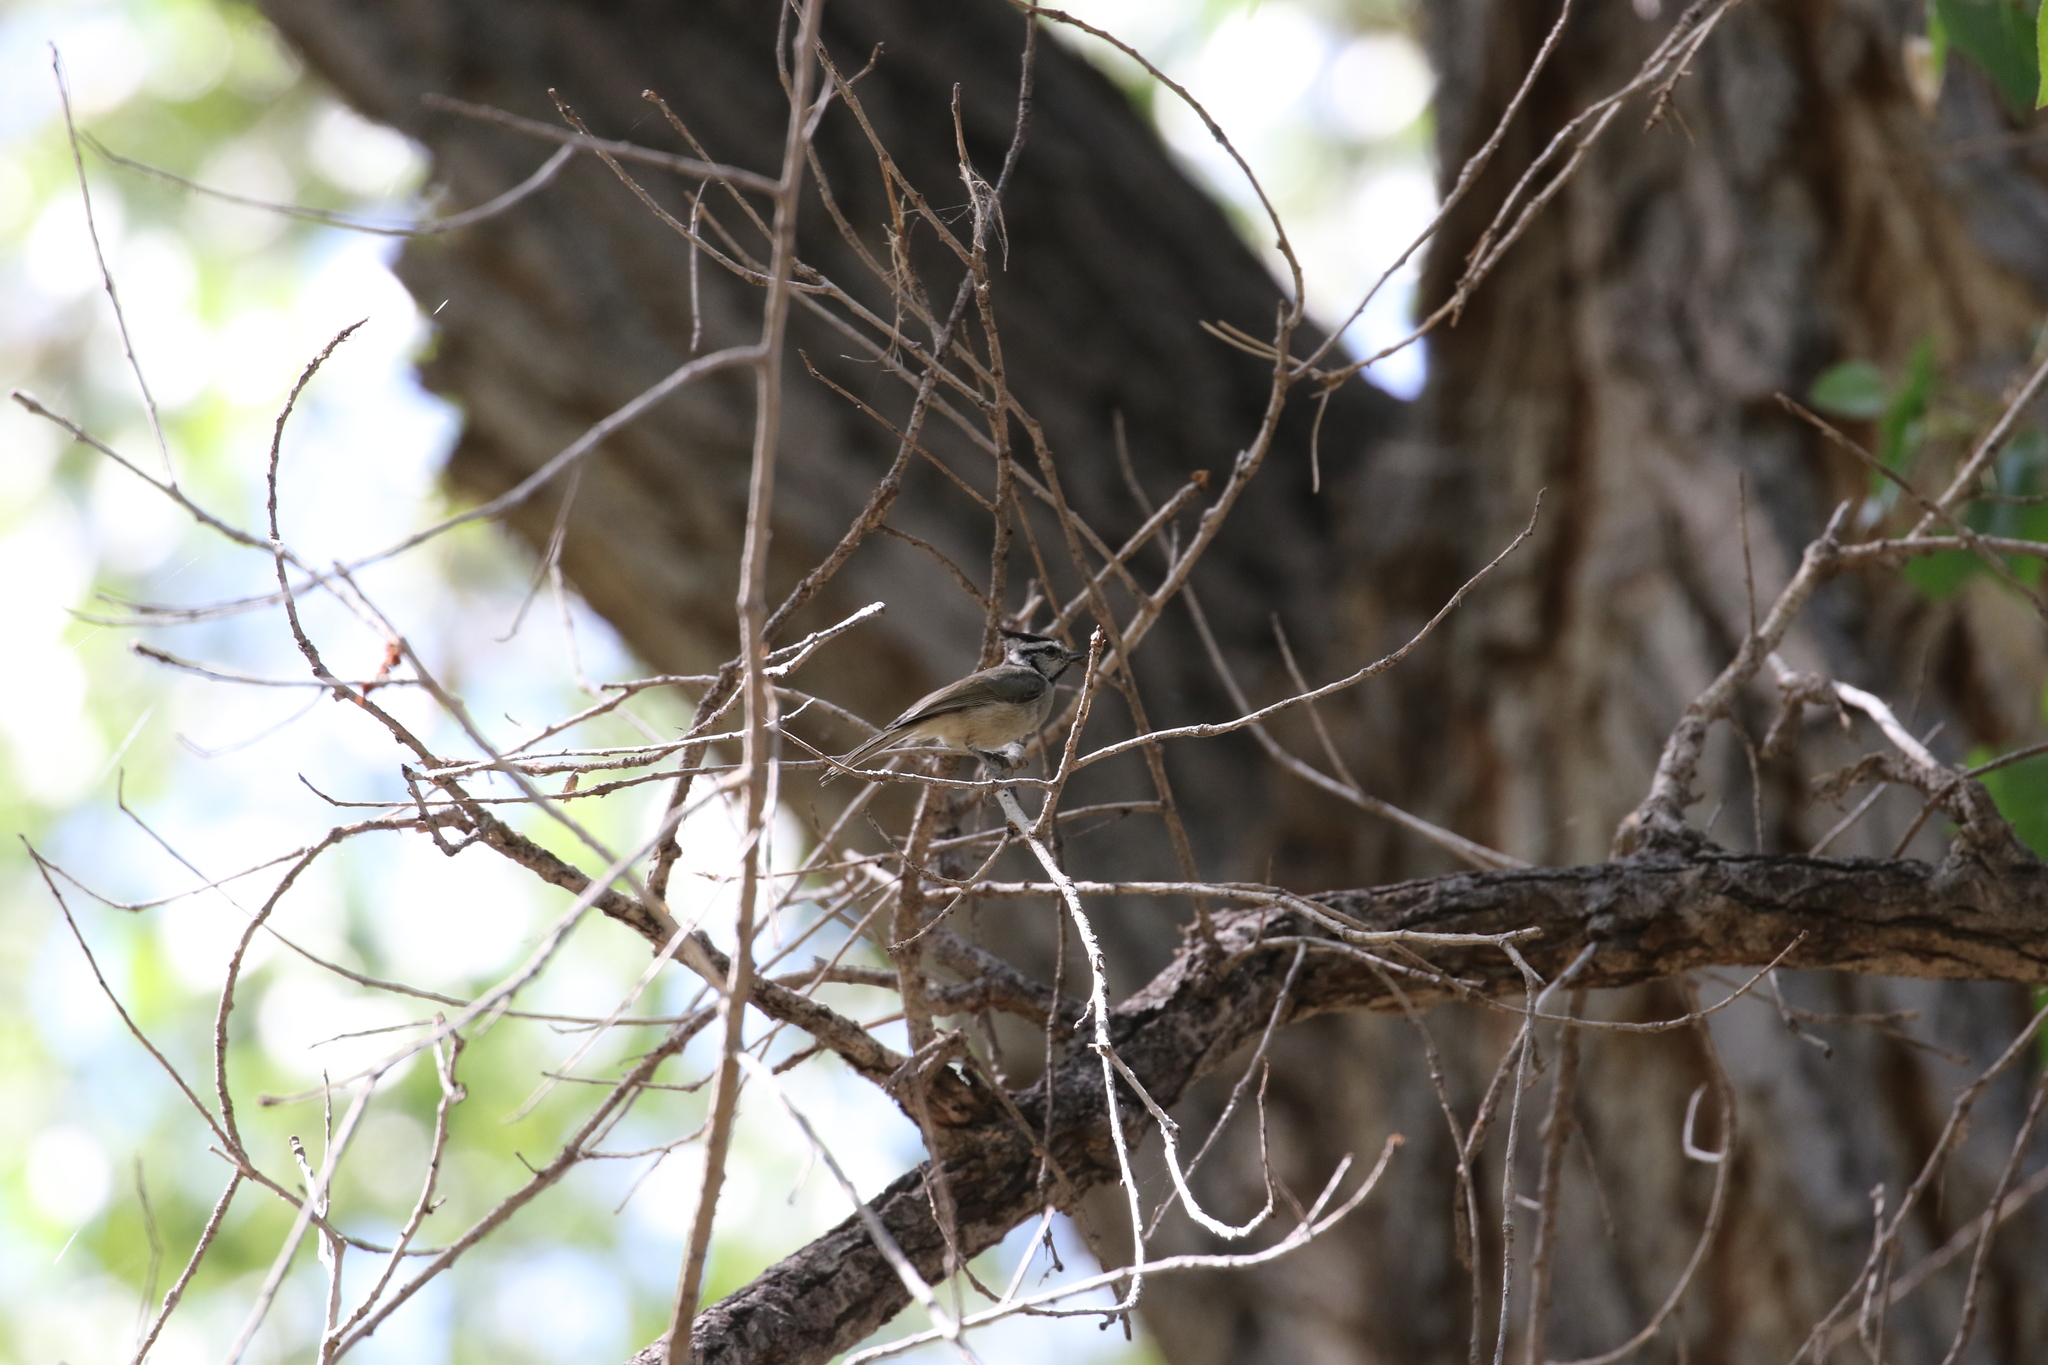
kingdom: Animalia
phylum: Chordata
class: Aves
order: Passeriformes
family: Paridae
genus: Baeolophus
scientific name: Baeolophus wollweberi
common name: Bridled titmouse
